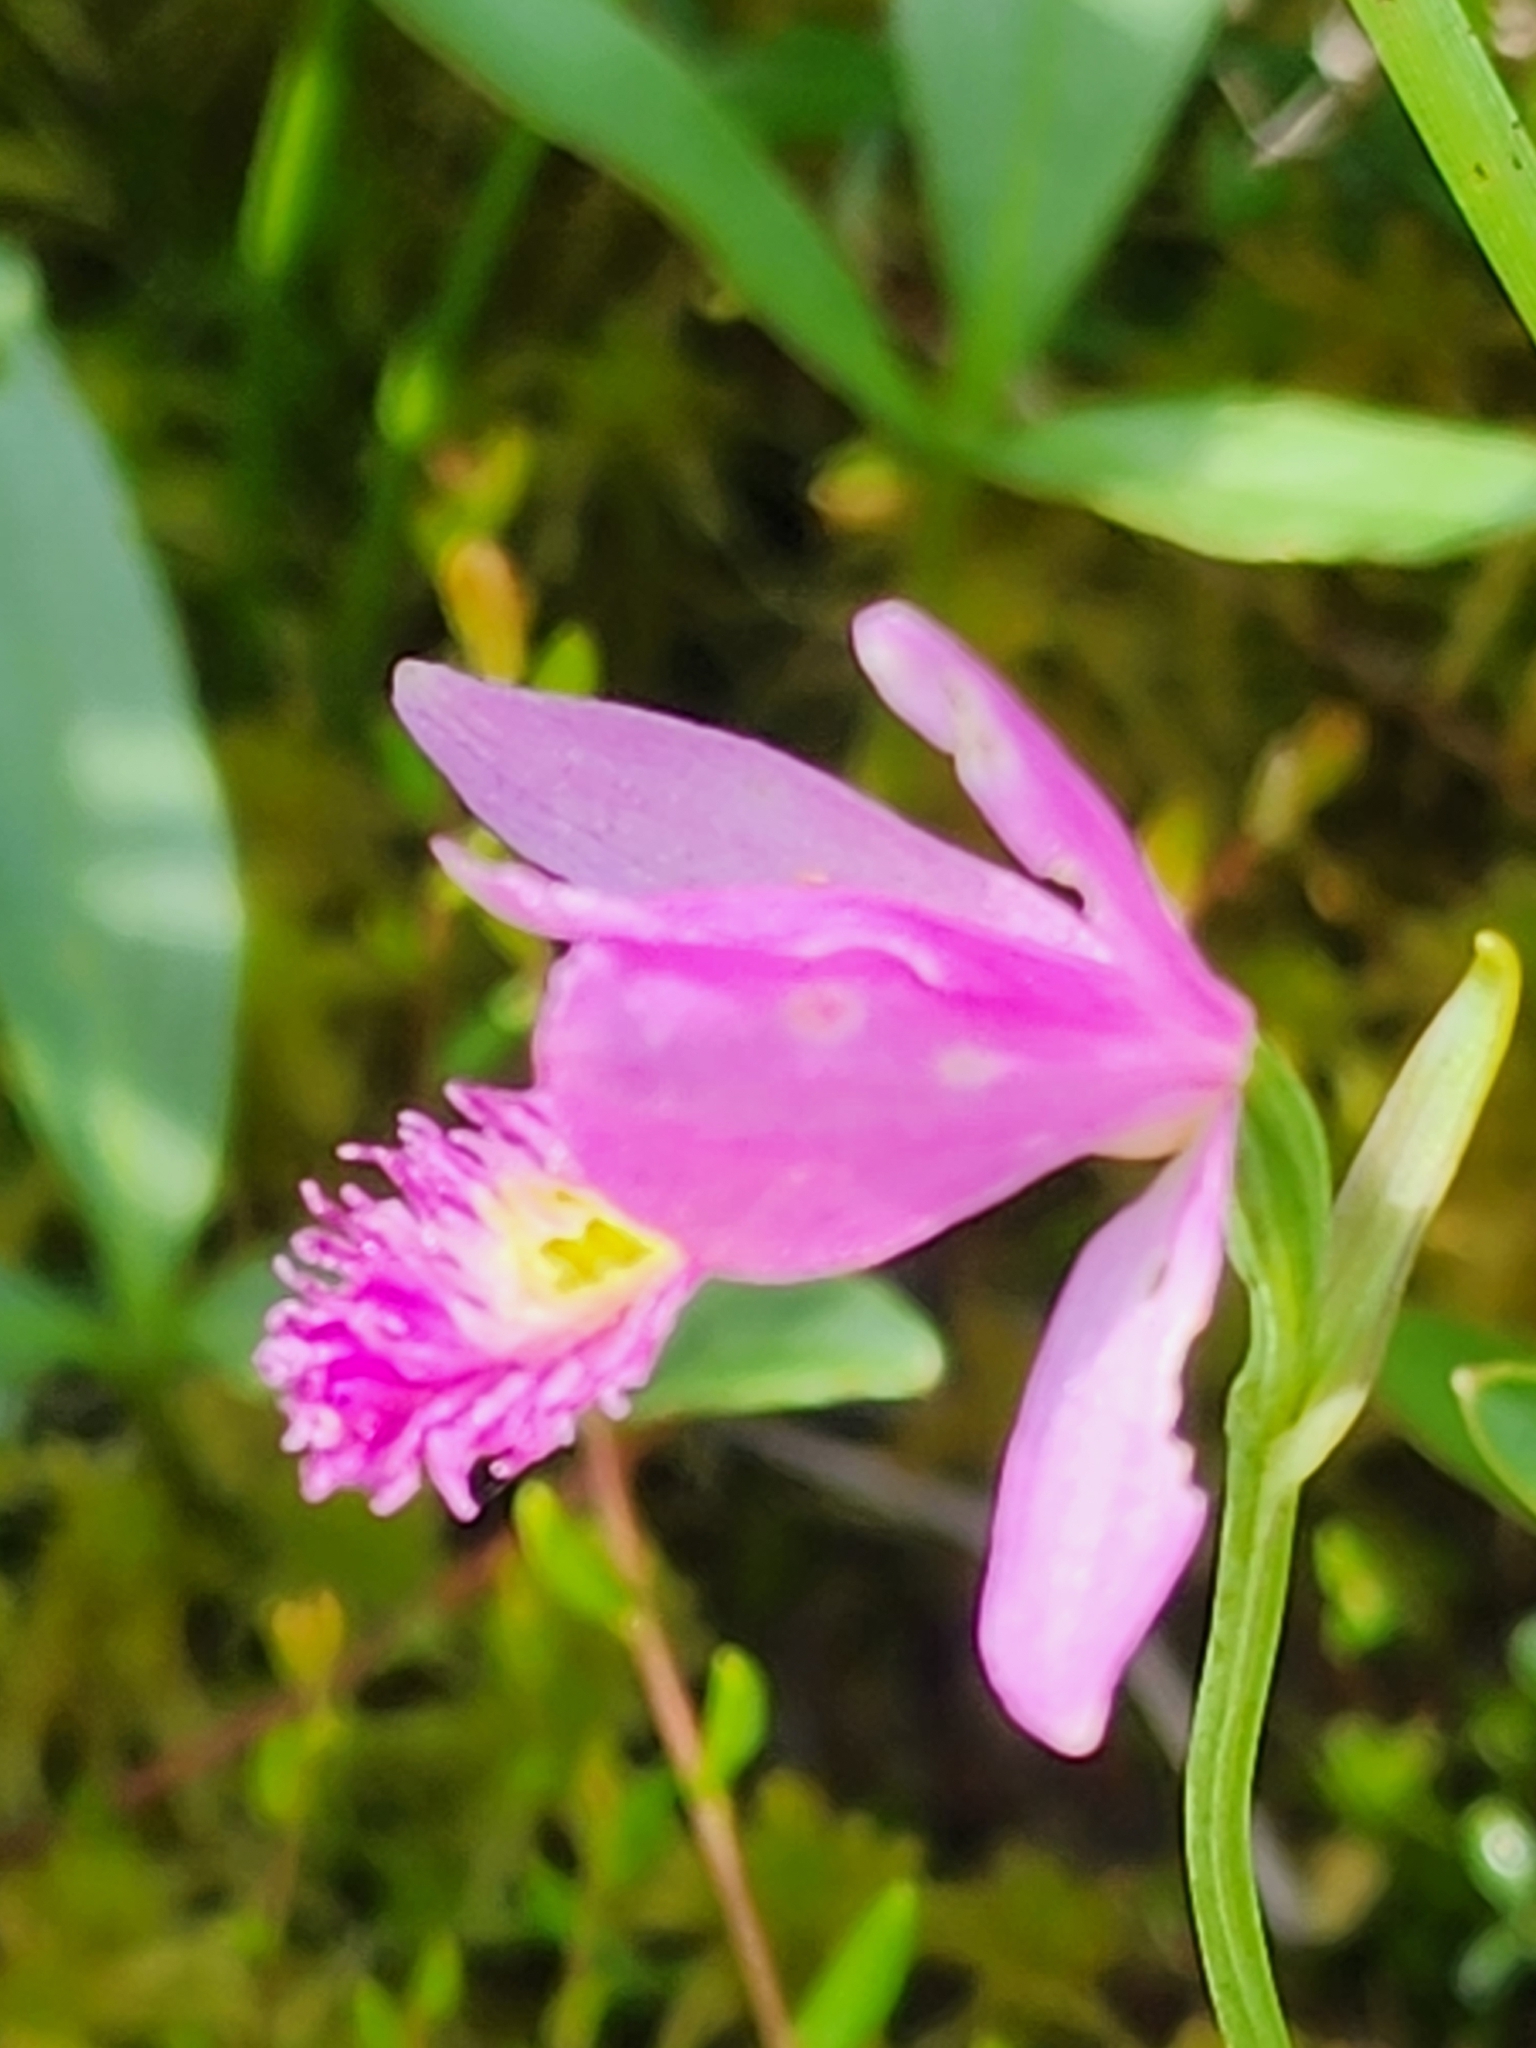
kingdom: Plantae
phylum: Tracheophyta
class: Liliopsida
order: Asparagales
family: Orchidaceae
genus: Pogonia
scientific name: Pogonia ophioglossoides
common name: Rose pogonia
